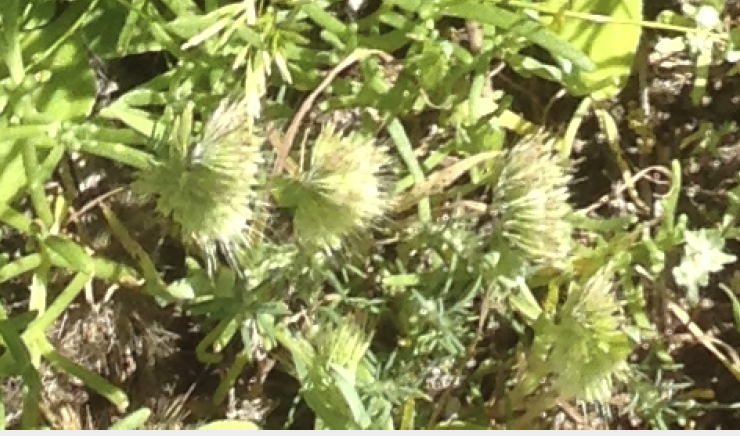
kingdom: Plantae
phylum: Tracheophyta
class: Liliopsida
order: Poales
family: Poaceae
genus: Lamarckia
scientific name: Lamarckia aurea
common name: Golden dog's-tail
